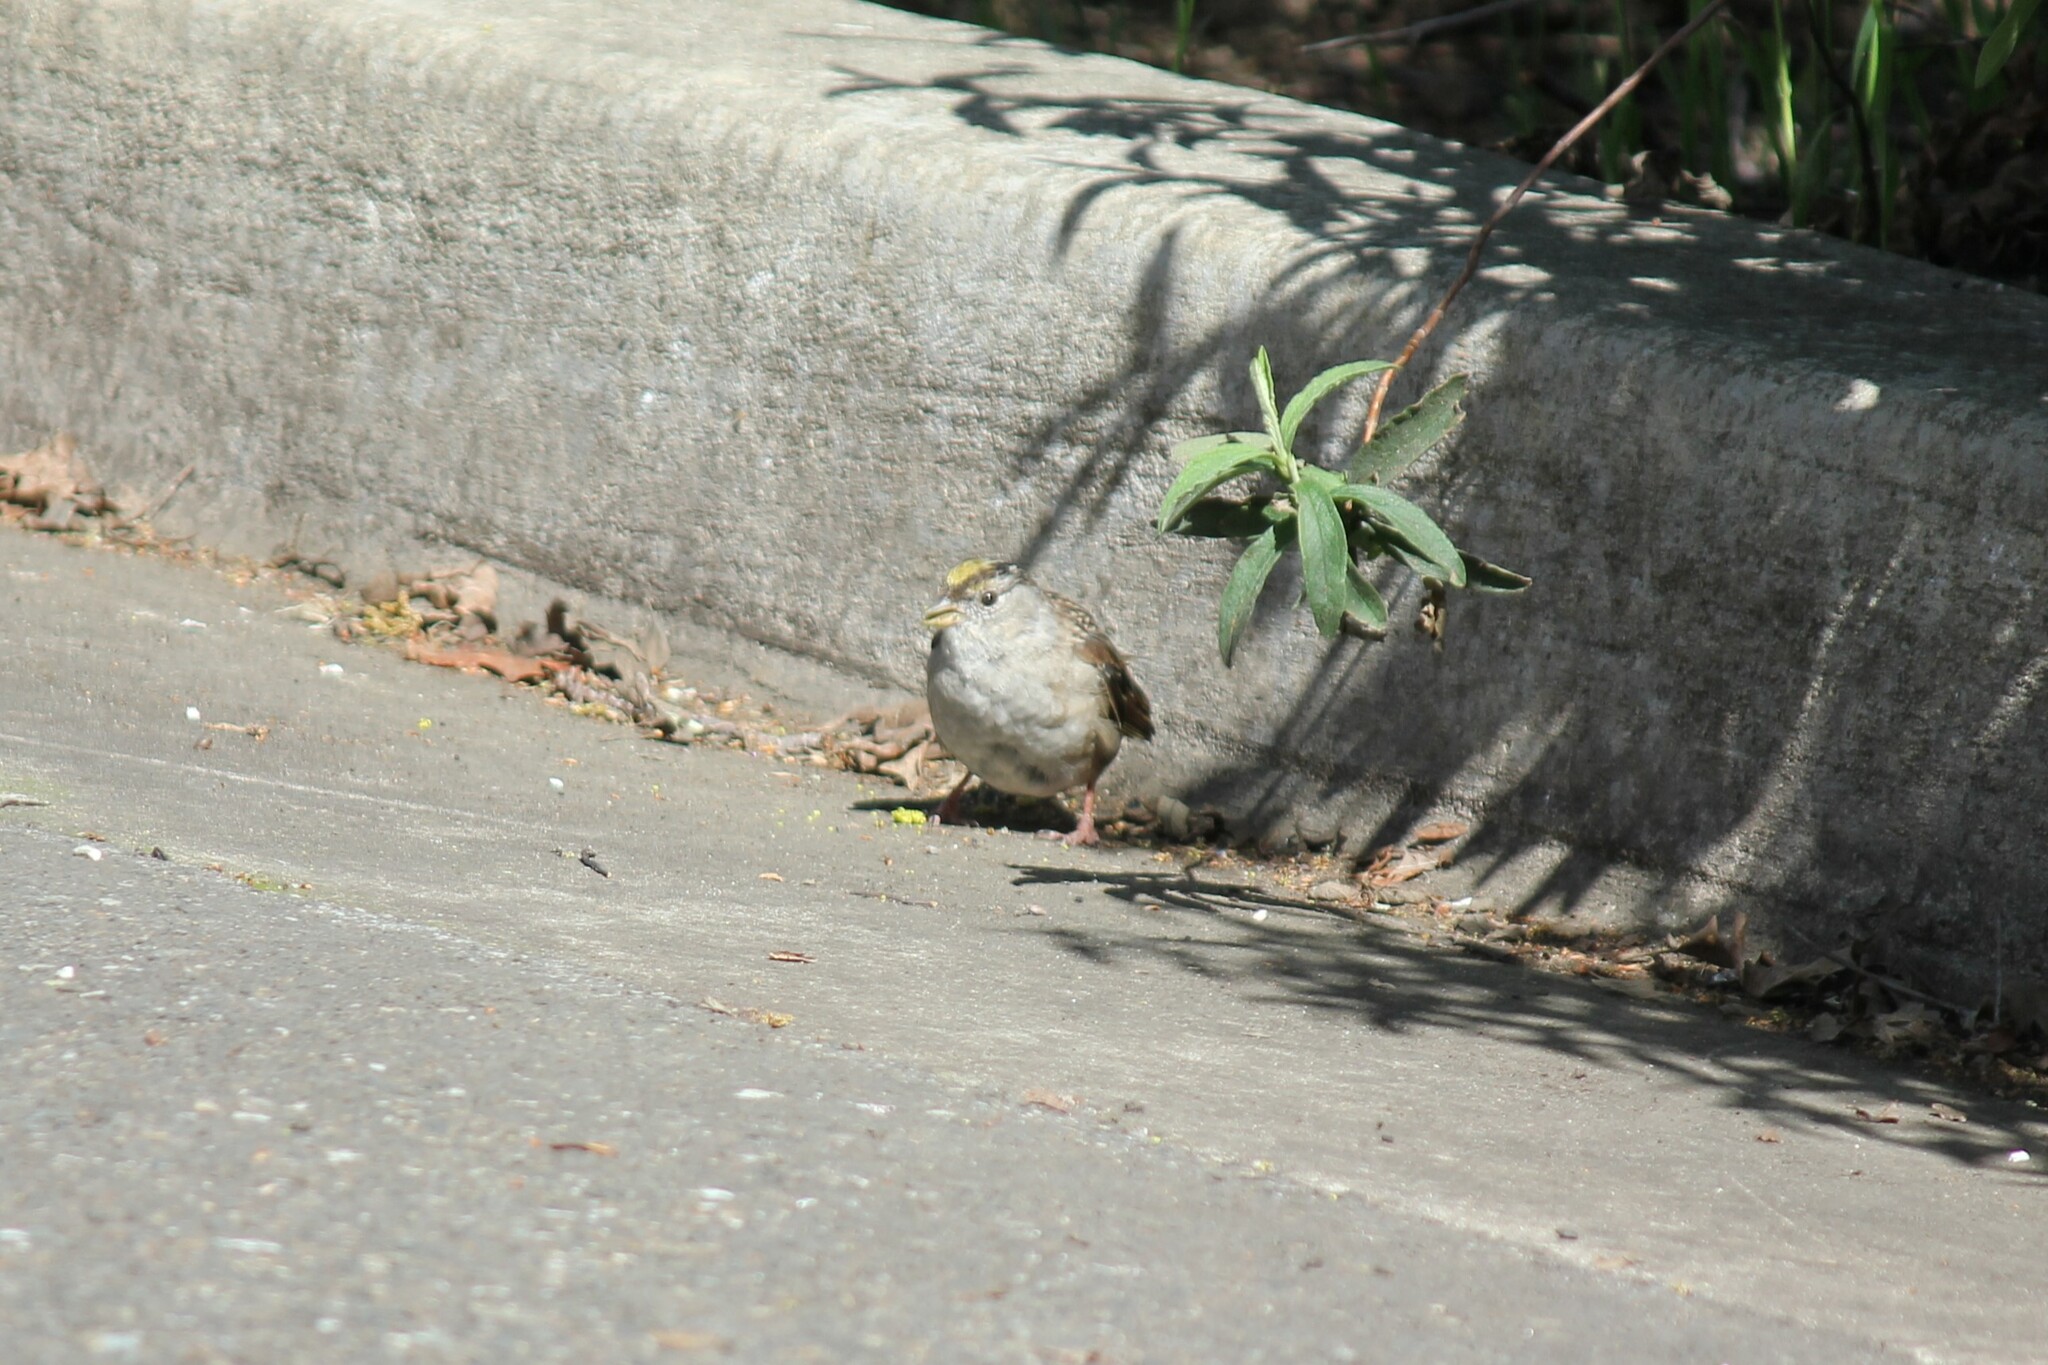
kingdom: Animalia
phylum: Chordata
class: Aves
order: Passeriformes
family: Passerellidae
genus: Zonotrichia
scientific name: Zonotrichia atricapilla
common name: Golden-crowned sparrow
